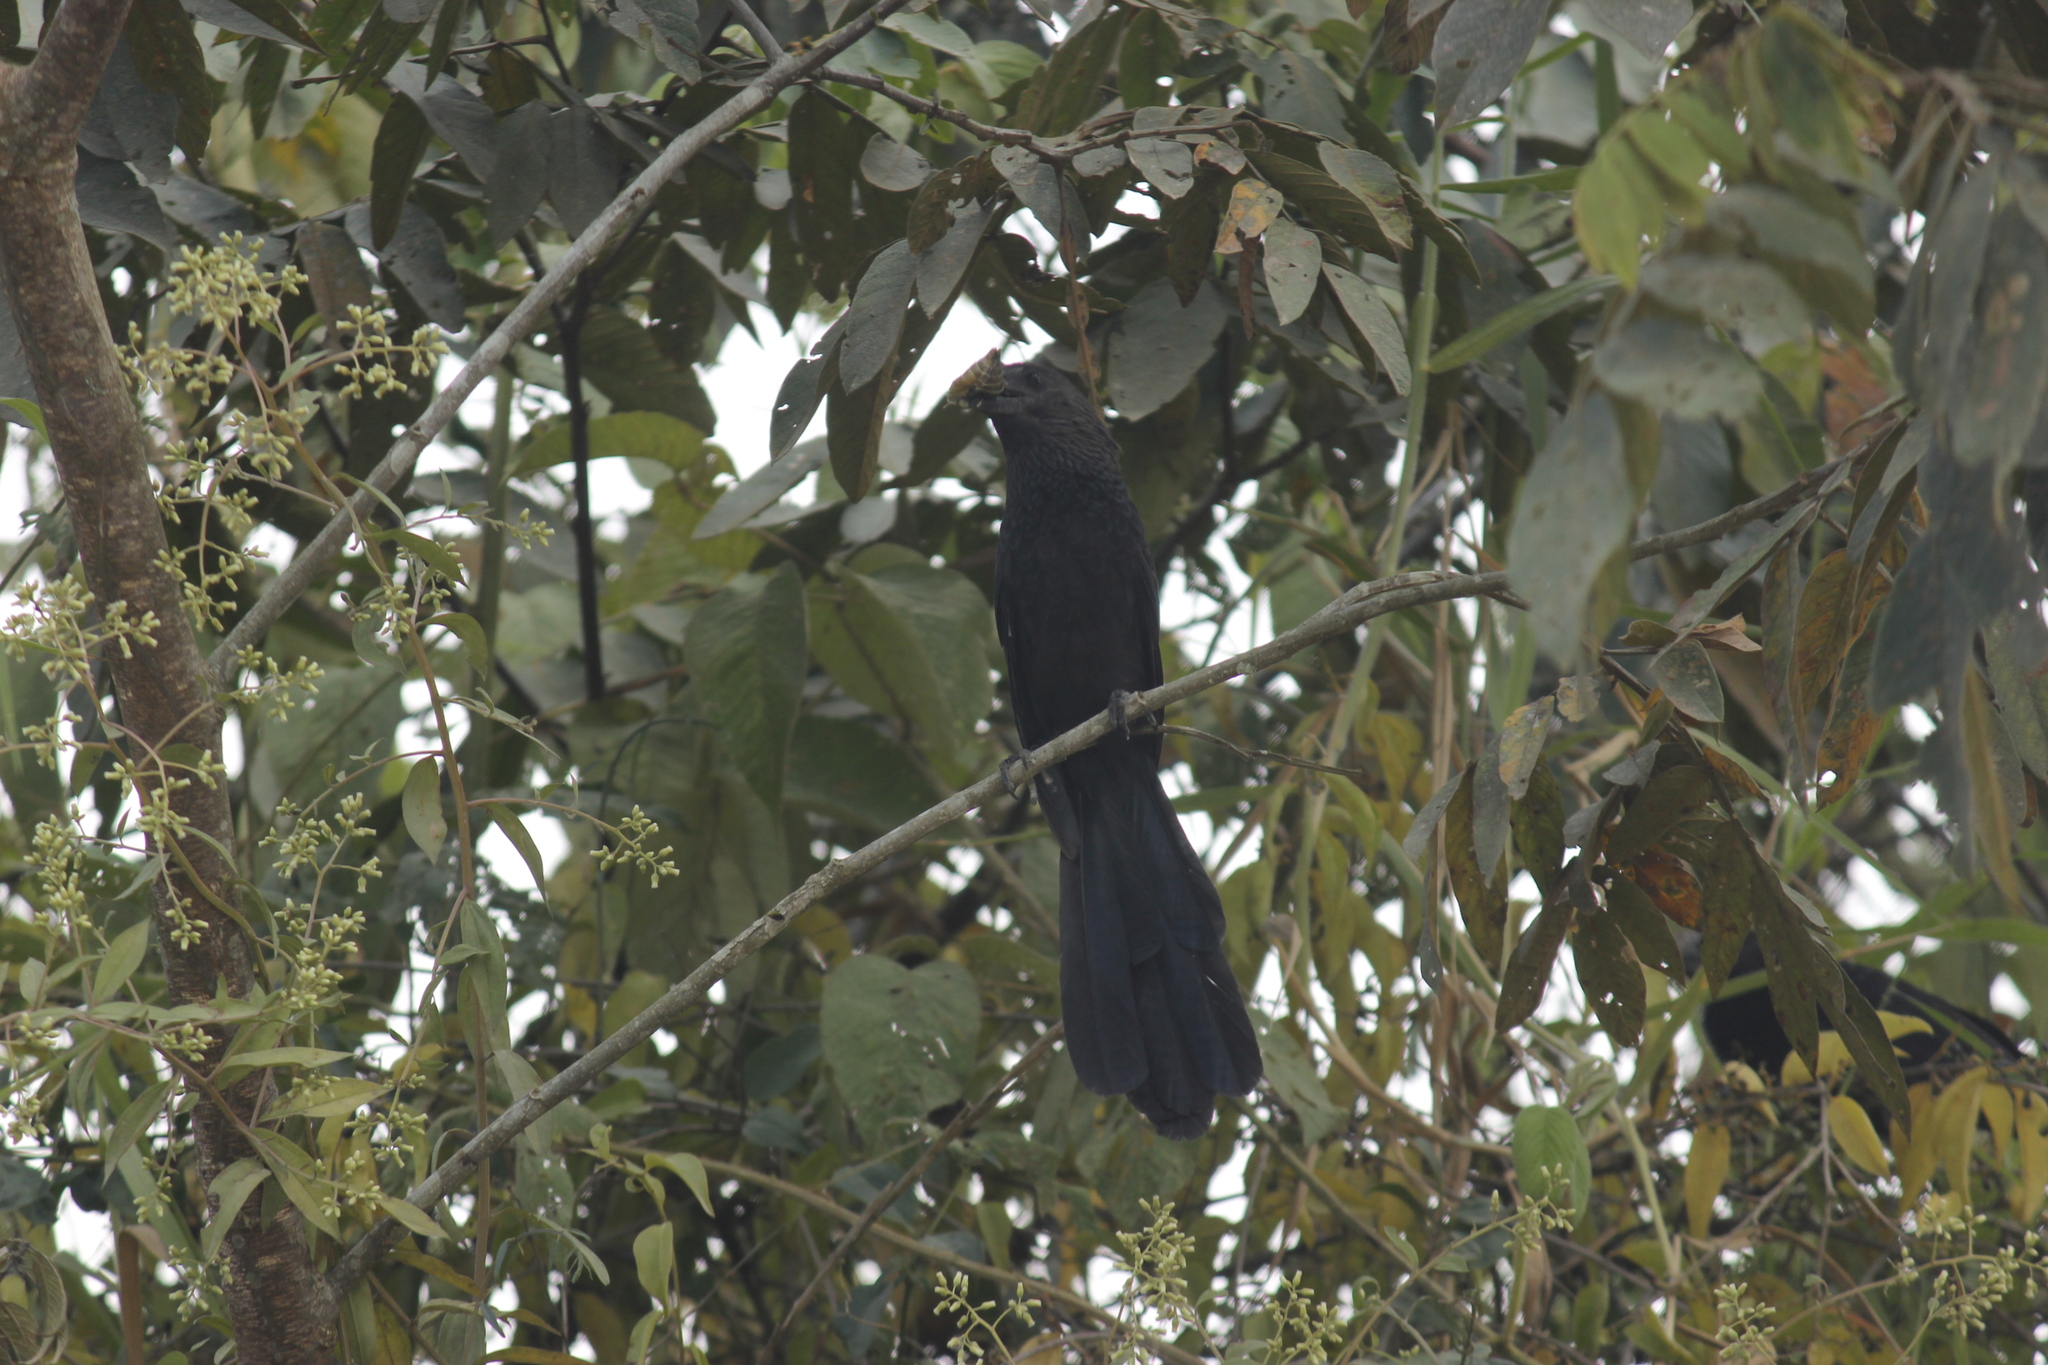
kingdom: Animalia
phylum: Chordata
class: Aves
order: Cuculiformes
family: Cuculidae
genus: Crotophaga
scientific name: Crotophaga ani
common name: Smooth-billed ani
